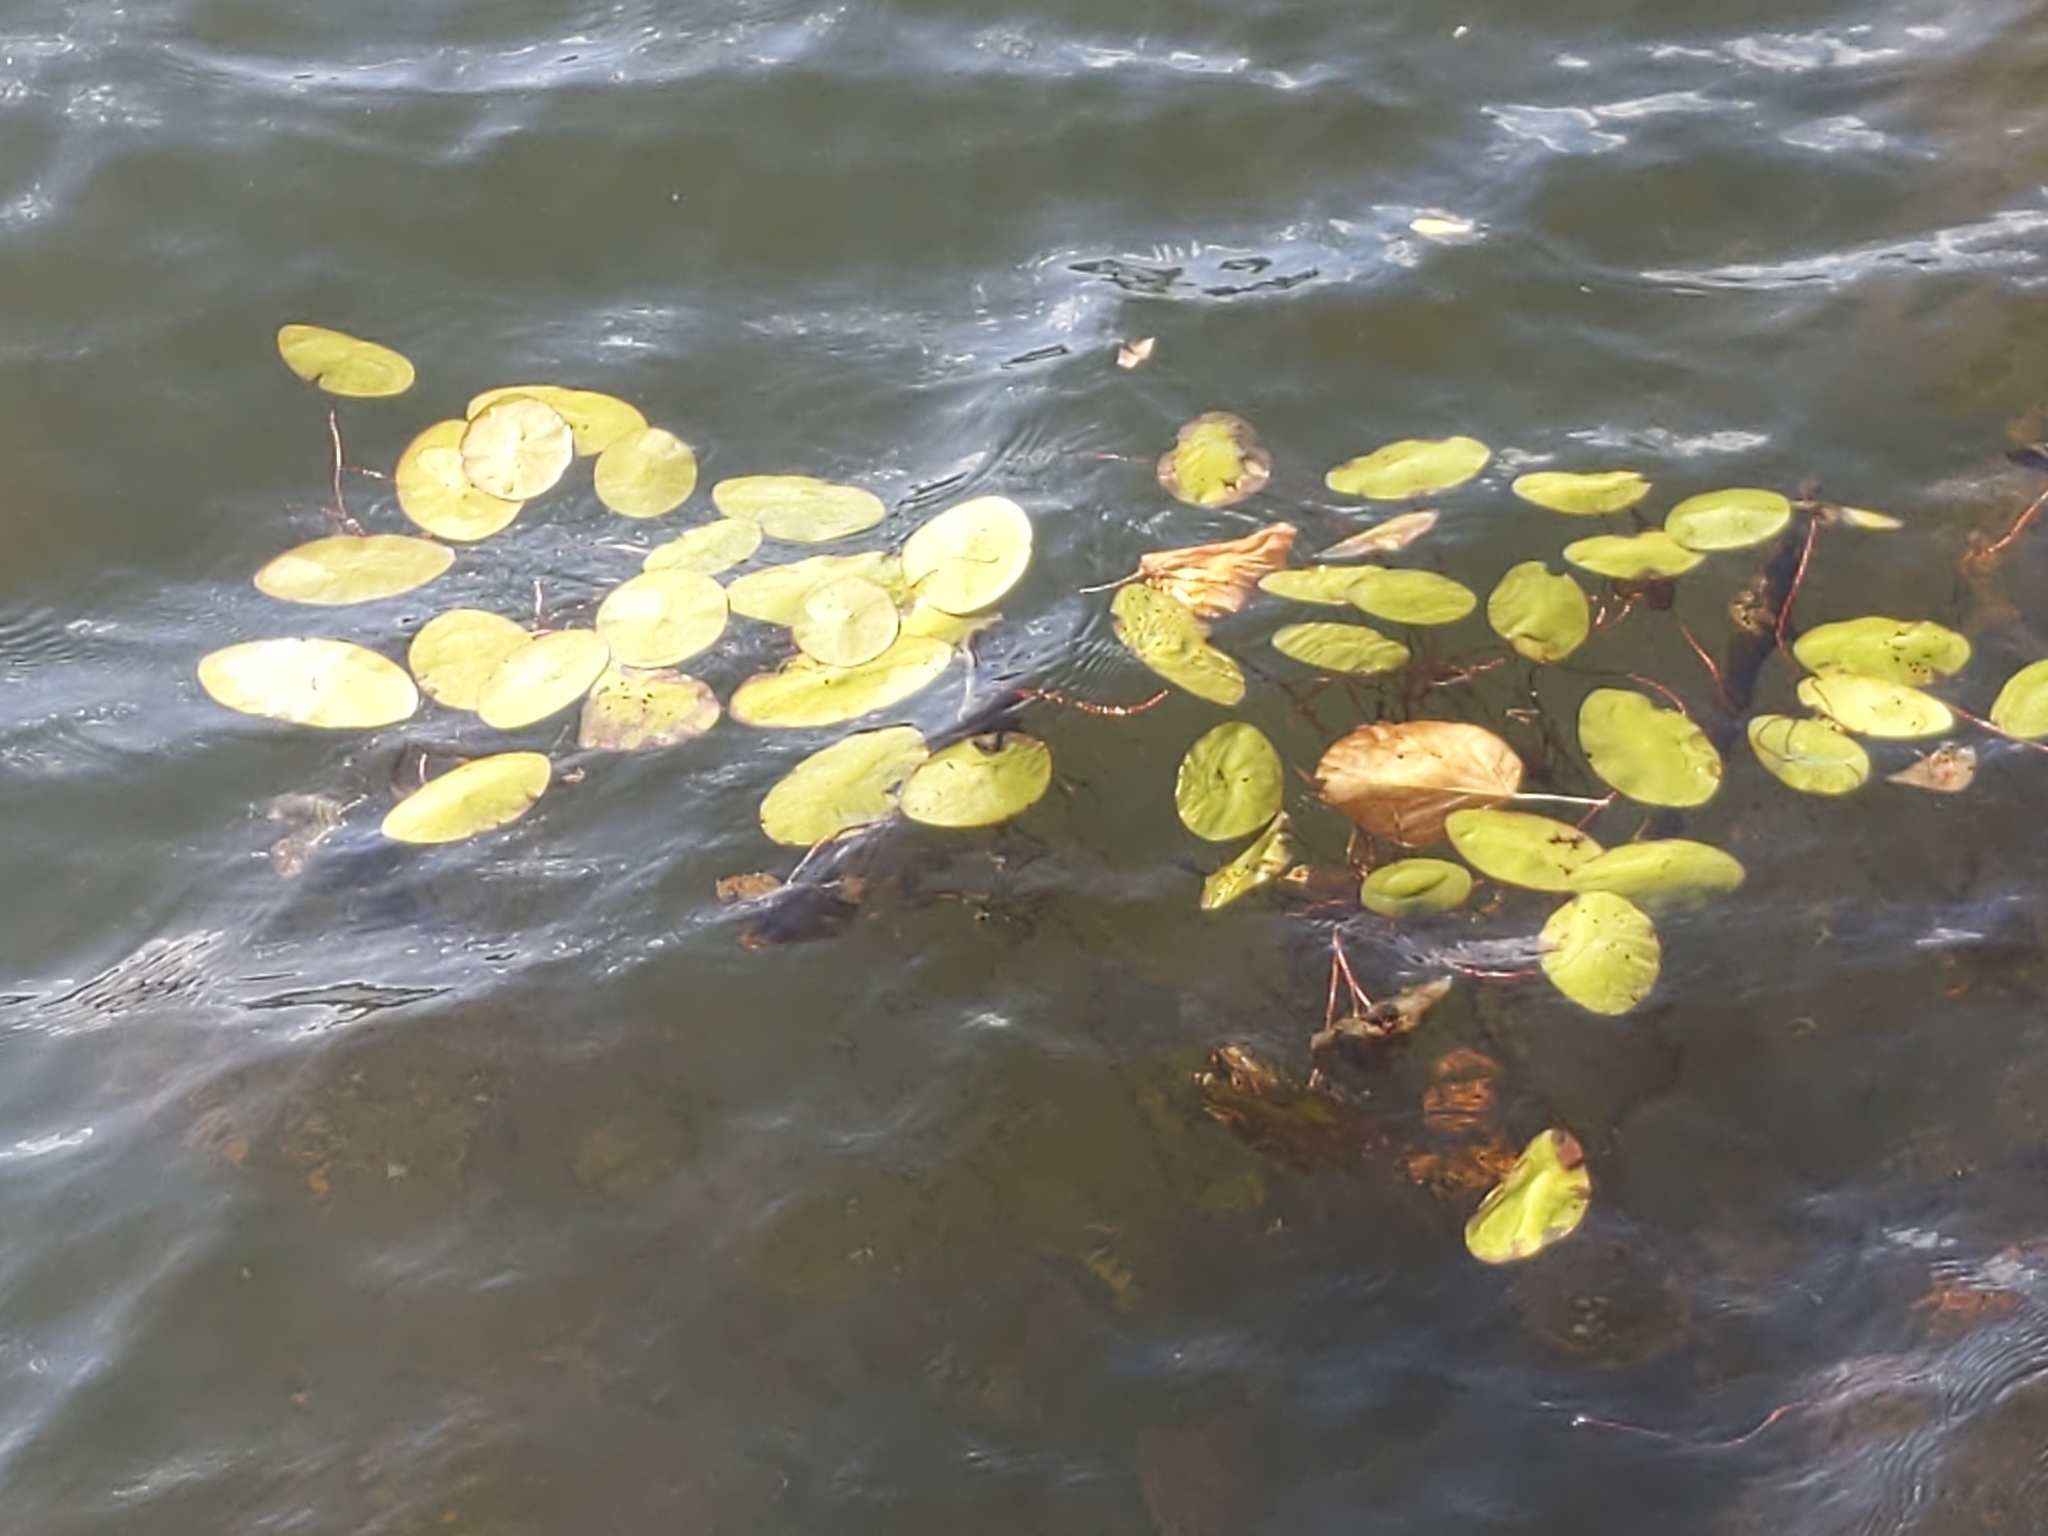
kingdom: Plantae
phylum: Tracheophyta
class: Magnoliopsida
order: Nymphaeales
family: Cabombaceae
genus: Brasenia
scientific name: Brasenia schreberi
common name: Water-shield
